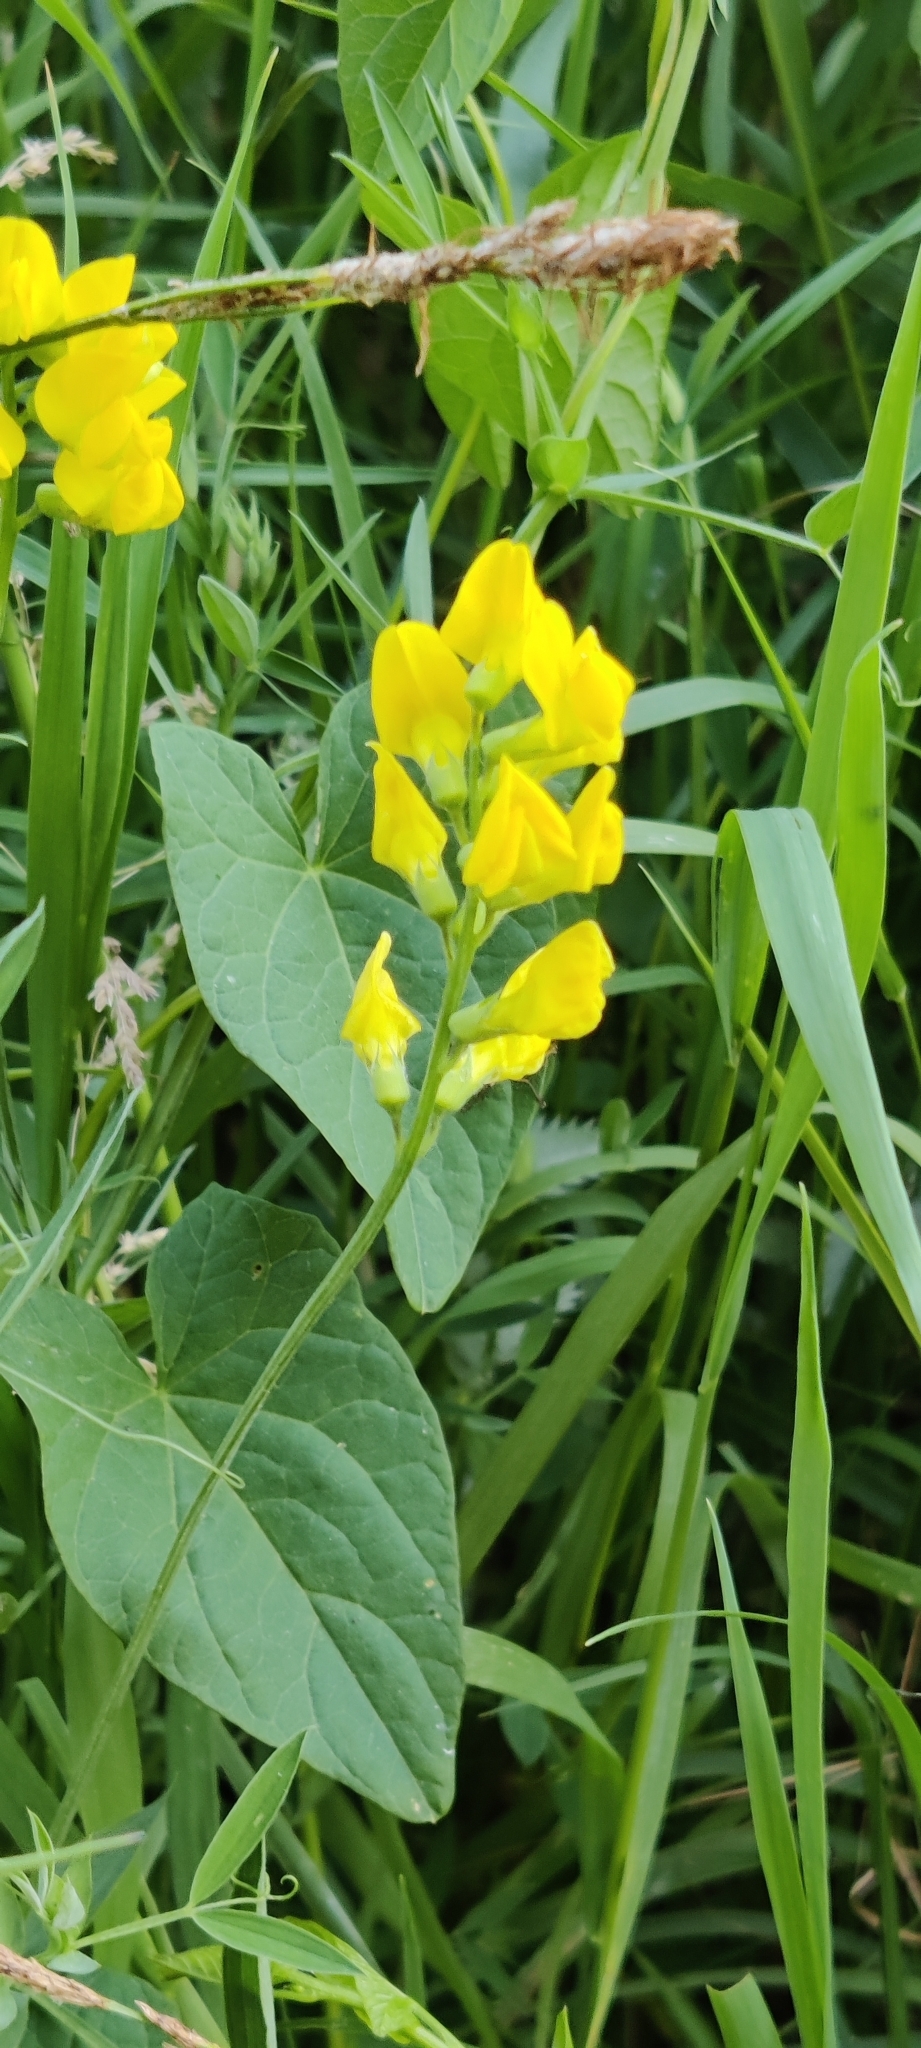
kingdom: Plantae
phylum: Tracheophyta
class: Magnoliopsida
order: Fabales
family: Fabaceae
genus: Lathyrus
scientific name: Lathyrus pratensis
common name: Meadow vetchling
